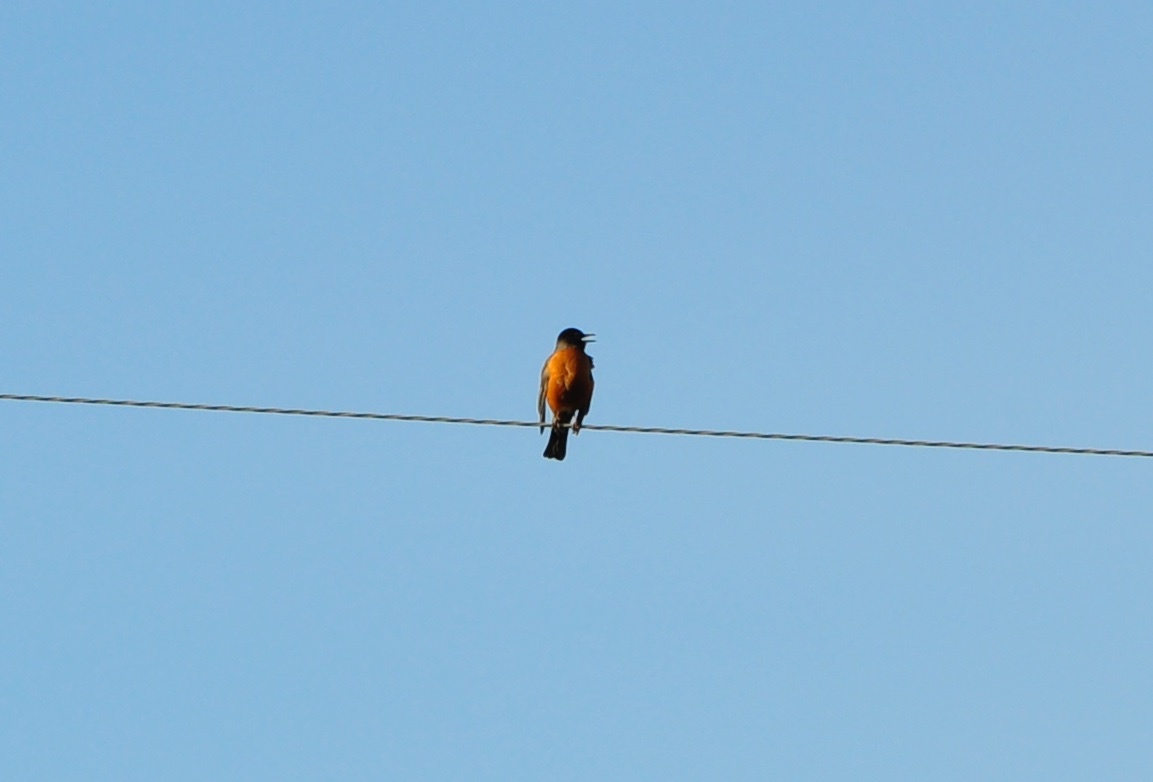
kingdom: Animalia
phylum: Chordata
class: Aves
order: Passeriformes
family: Turdidae
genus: Turdus
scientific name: Turdus migratorius
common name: American robin
